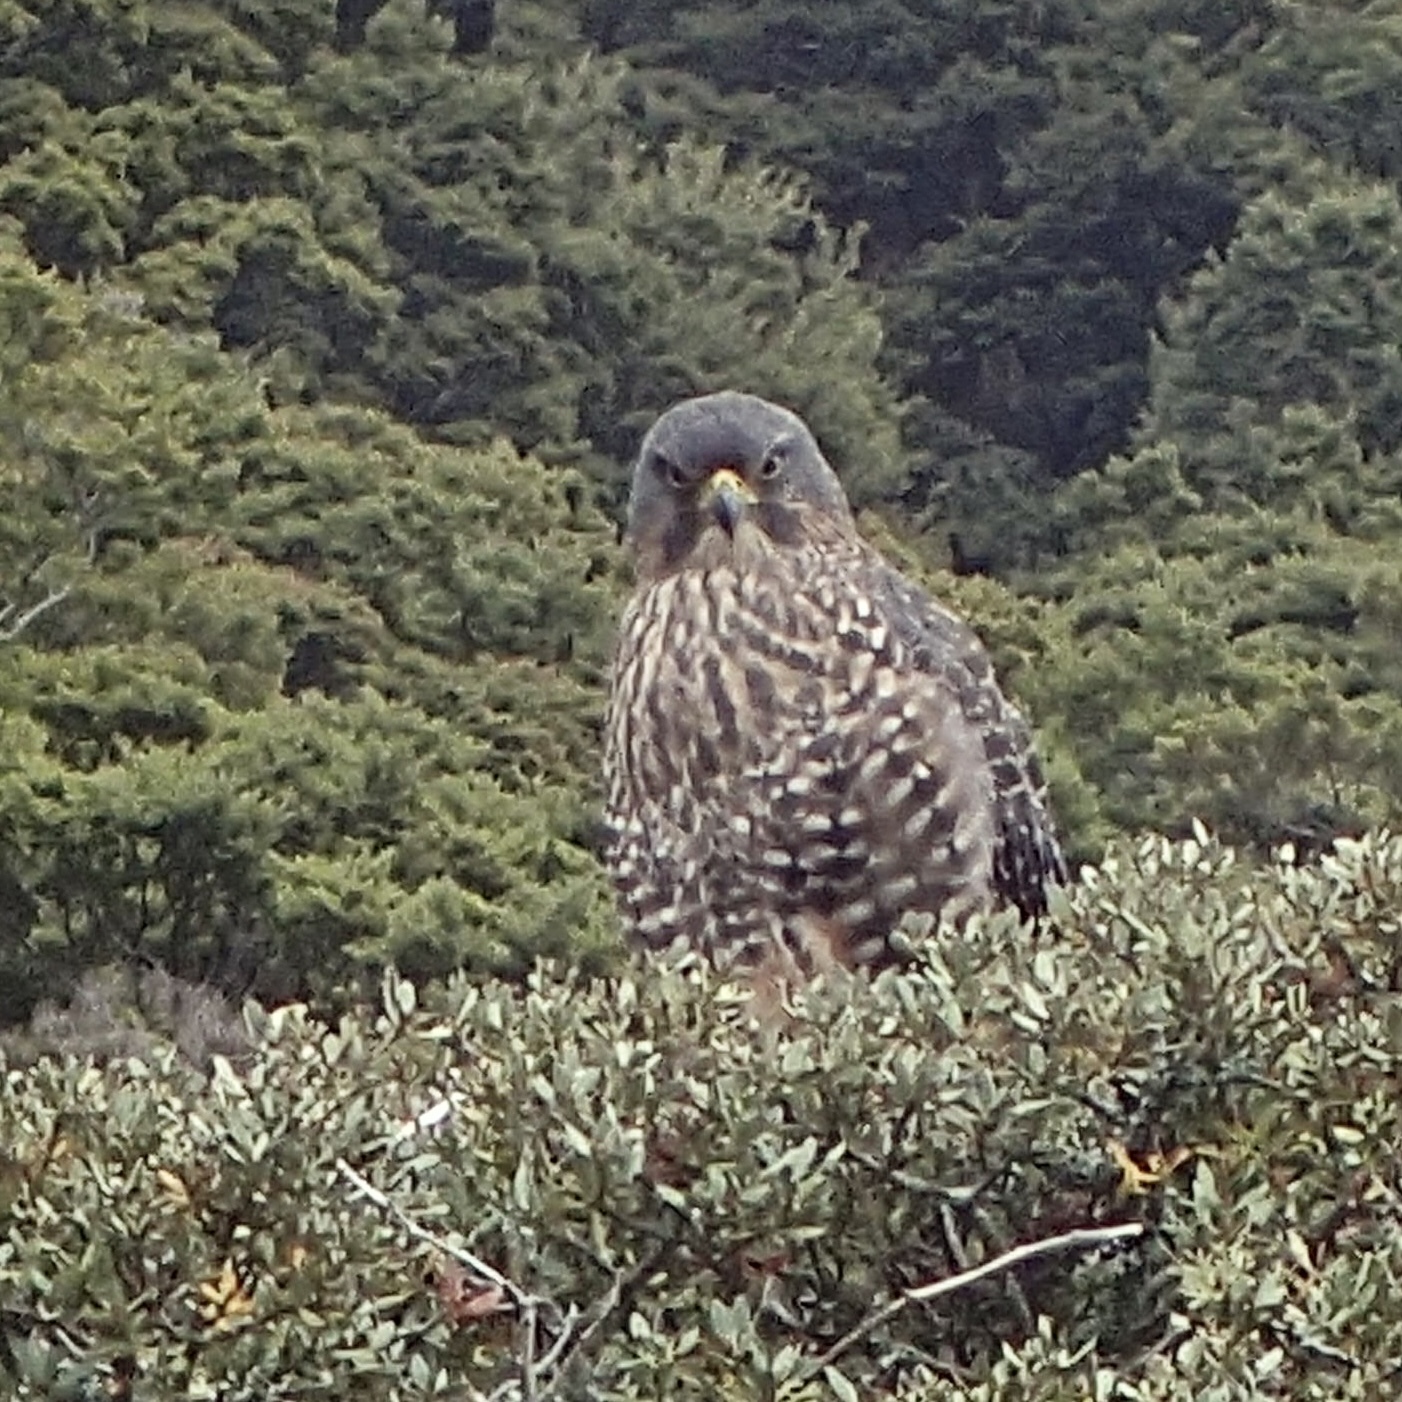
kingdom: Animalia
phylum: Chordata
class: Aves
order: Falconiformes
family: Falconidae
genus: Falco
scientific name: Falco novaeseelandiae
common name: New zealand falcon
